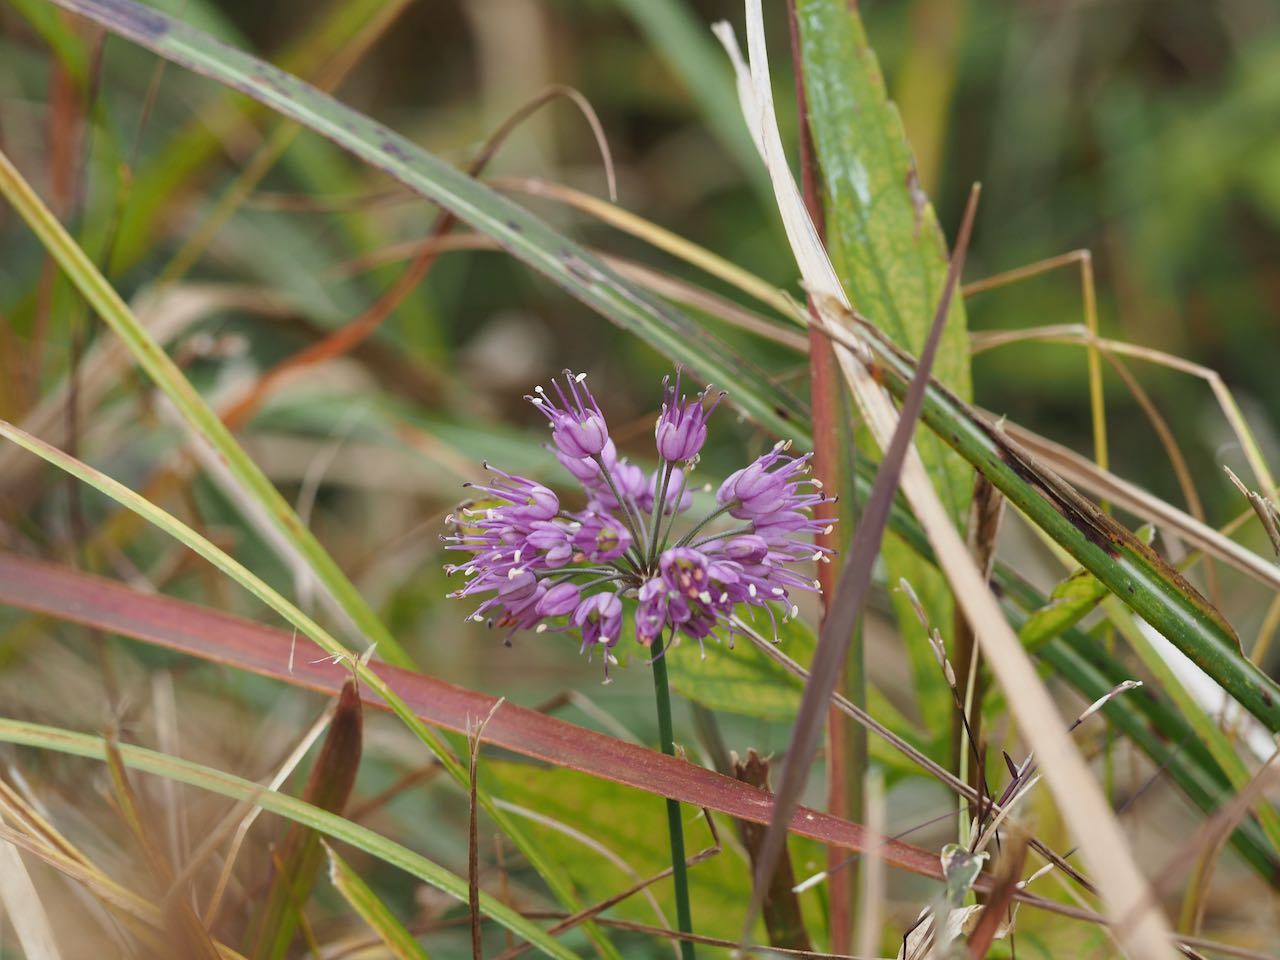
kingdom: Plantae
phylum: Tracheophyta
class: Liliopsida
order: Asparagales
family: Amaryllidaceae
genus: Allium
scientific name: Allium thunbergii
